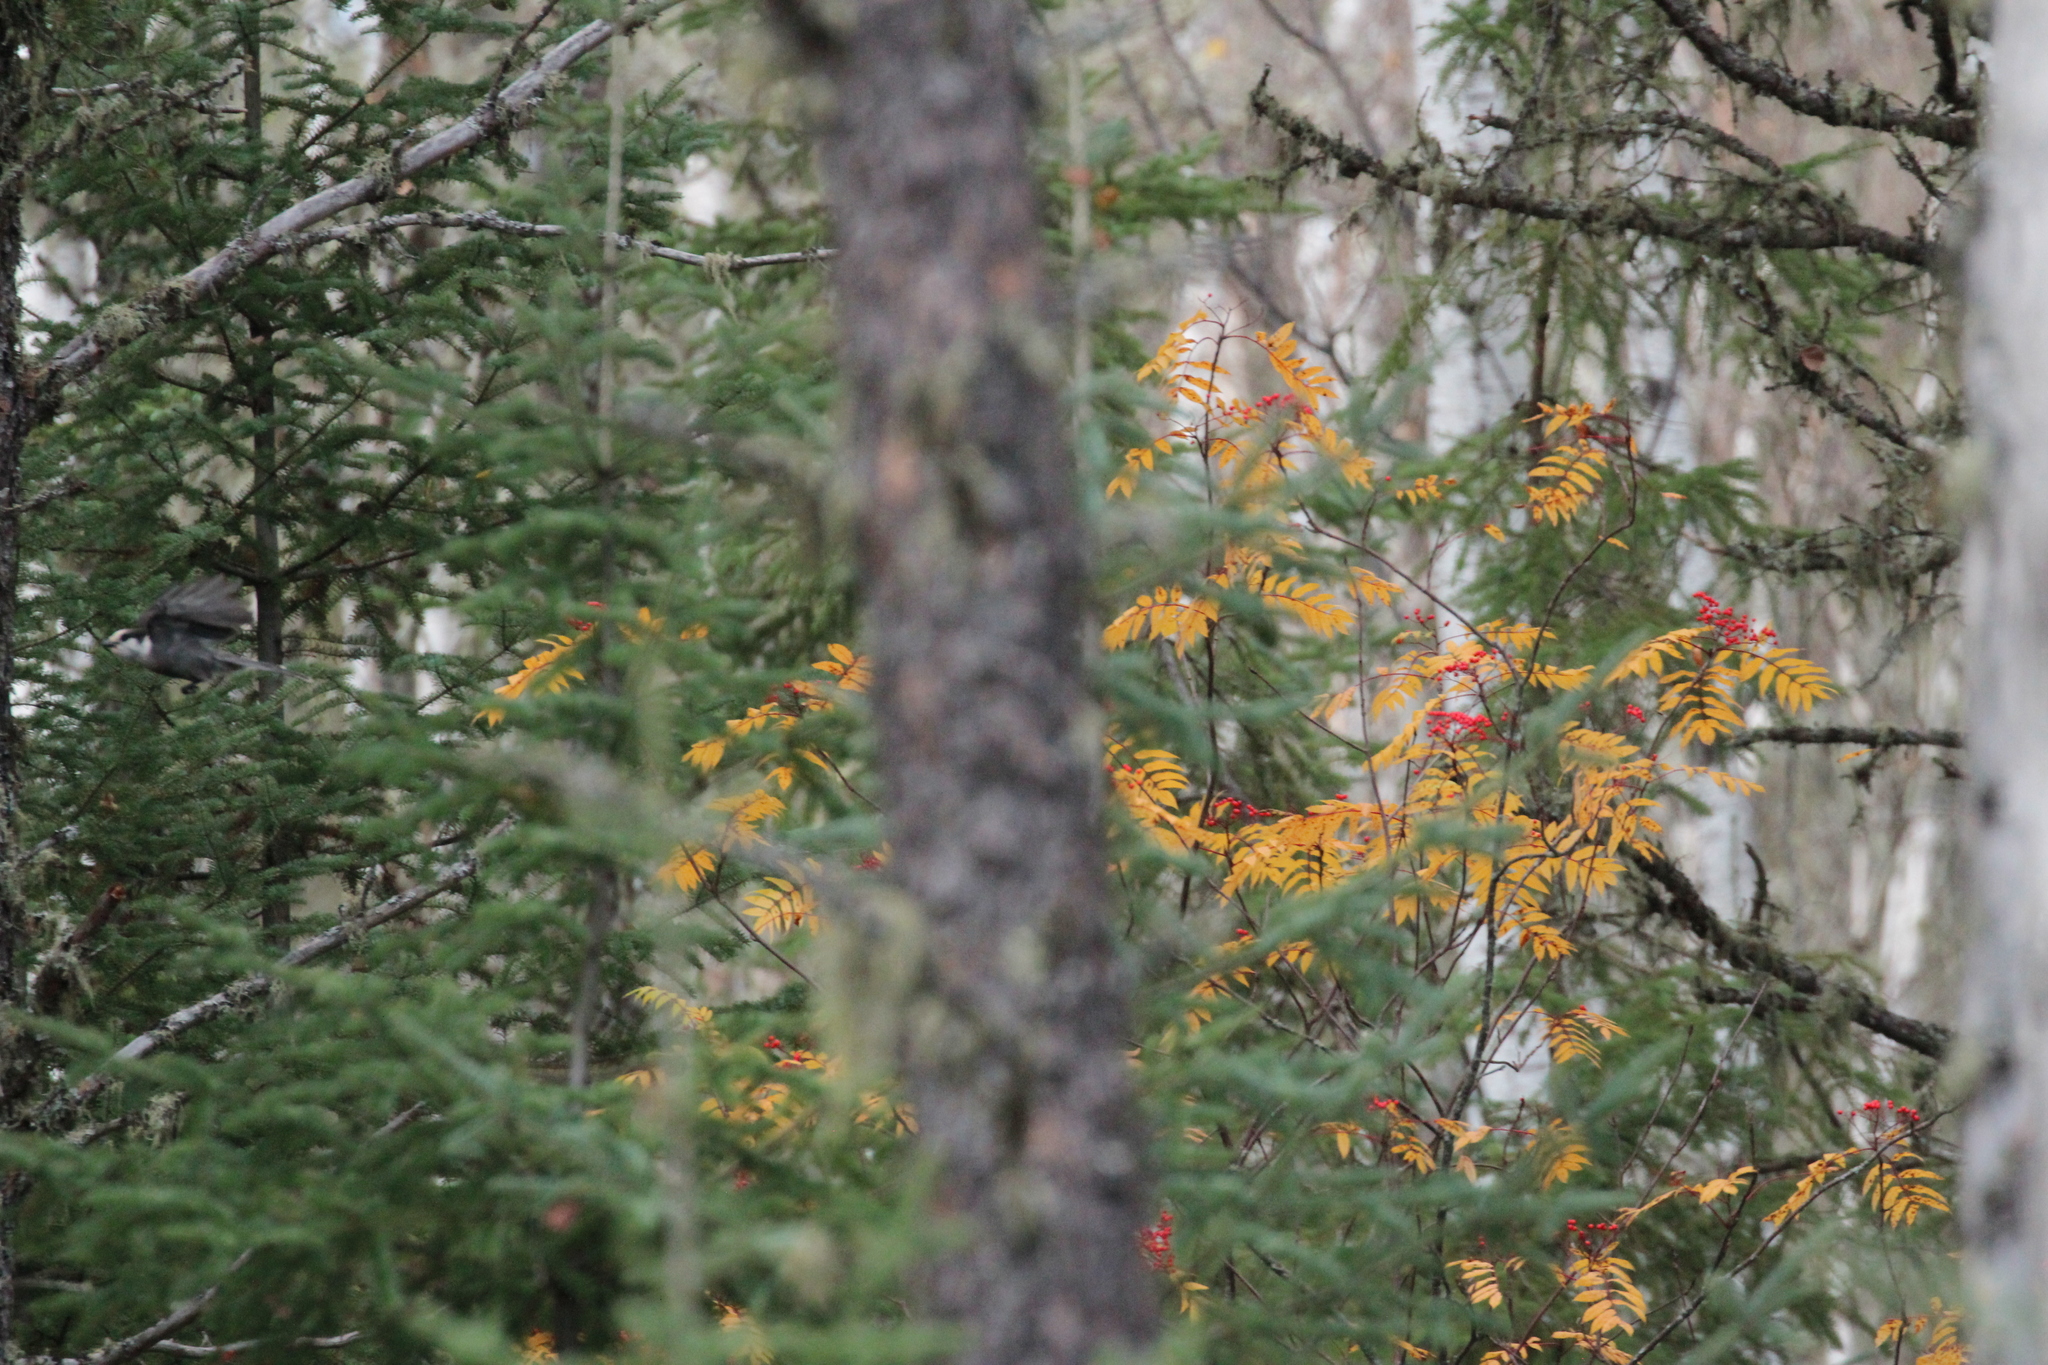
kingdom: Animalia
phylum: Chordata
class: Aves
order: Passeriformes
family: Corvidae
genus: Perisoreus
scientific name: Perisoreus canadensis
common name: Gray jay
